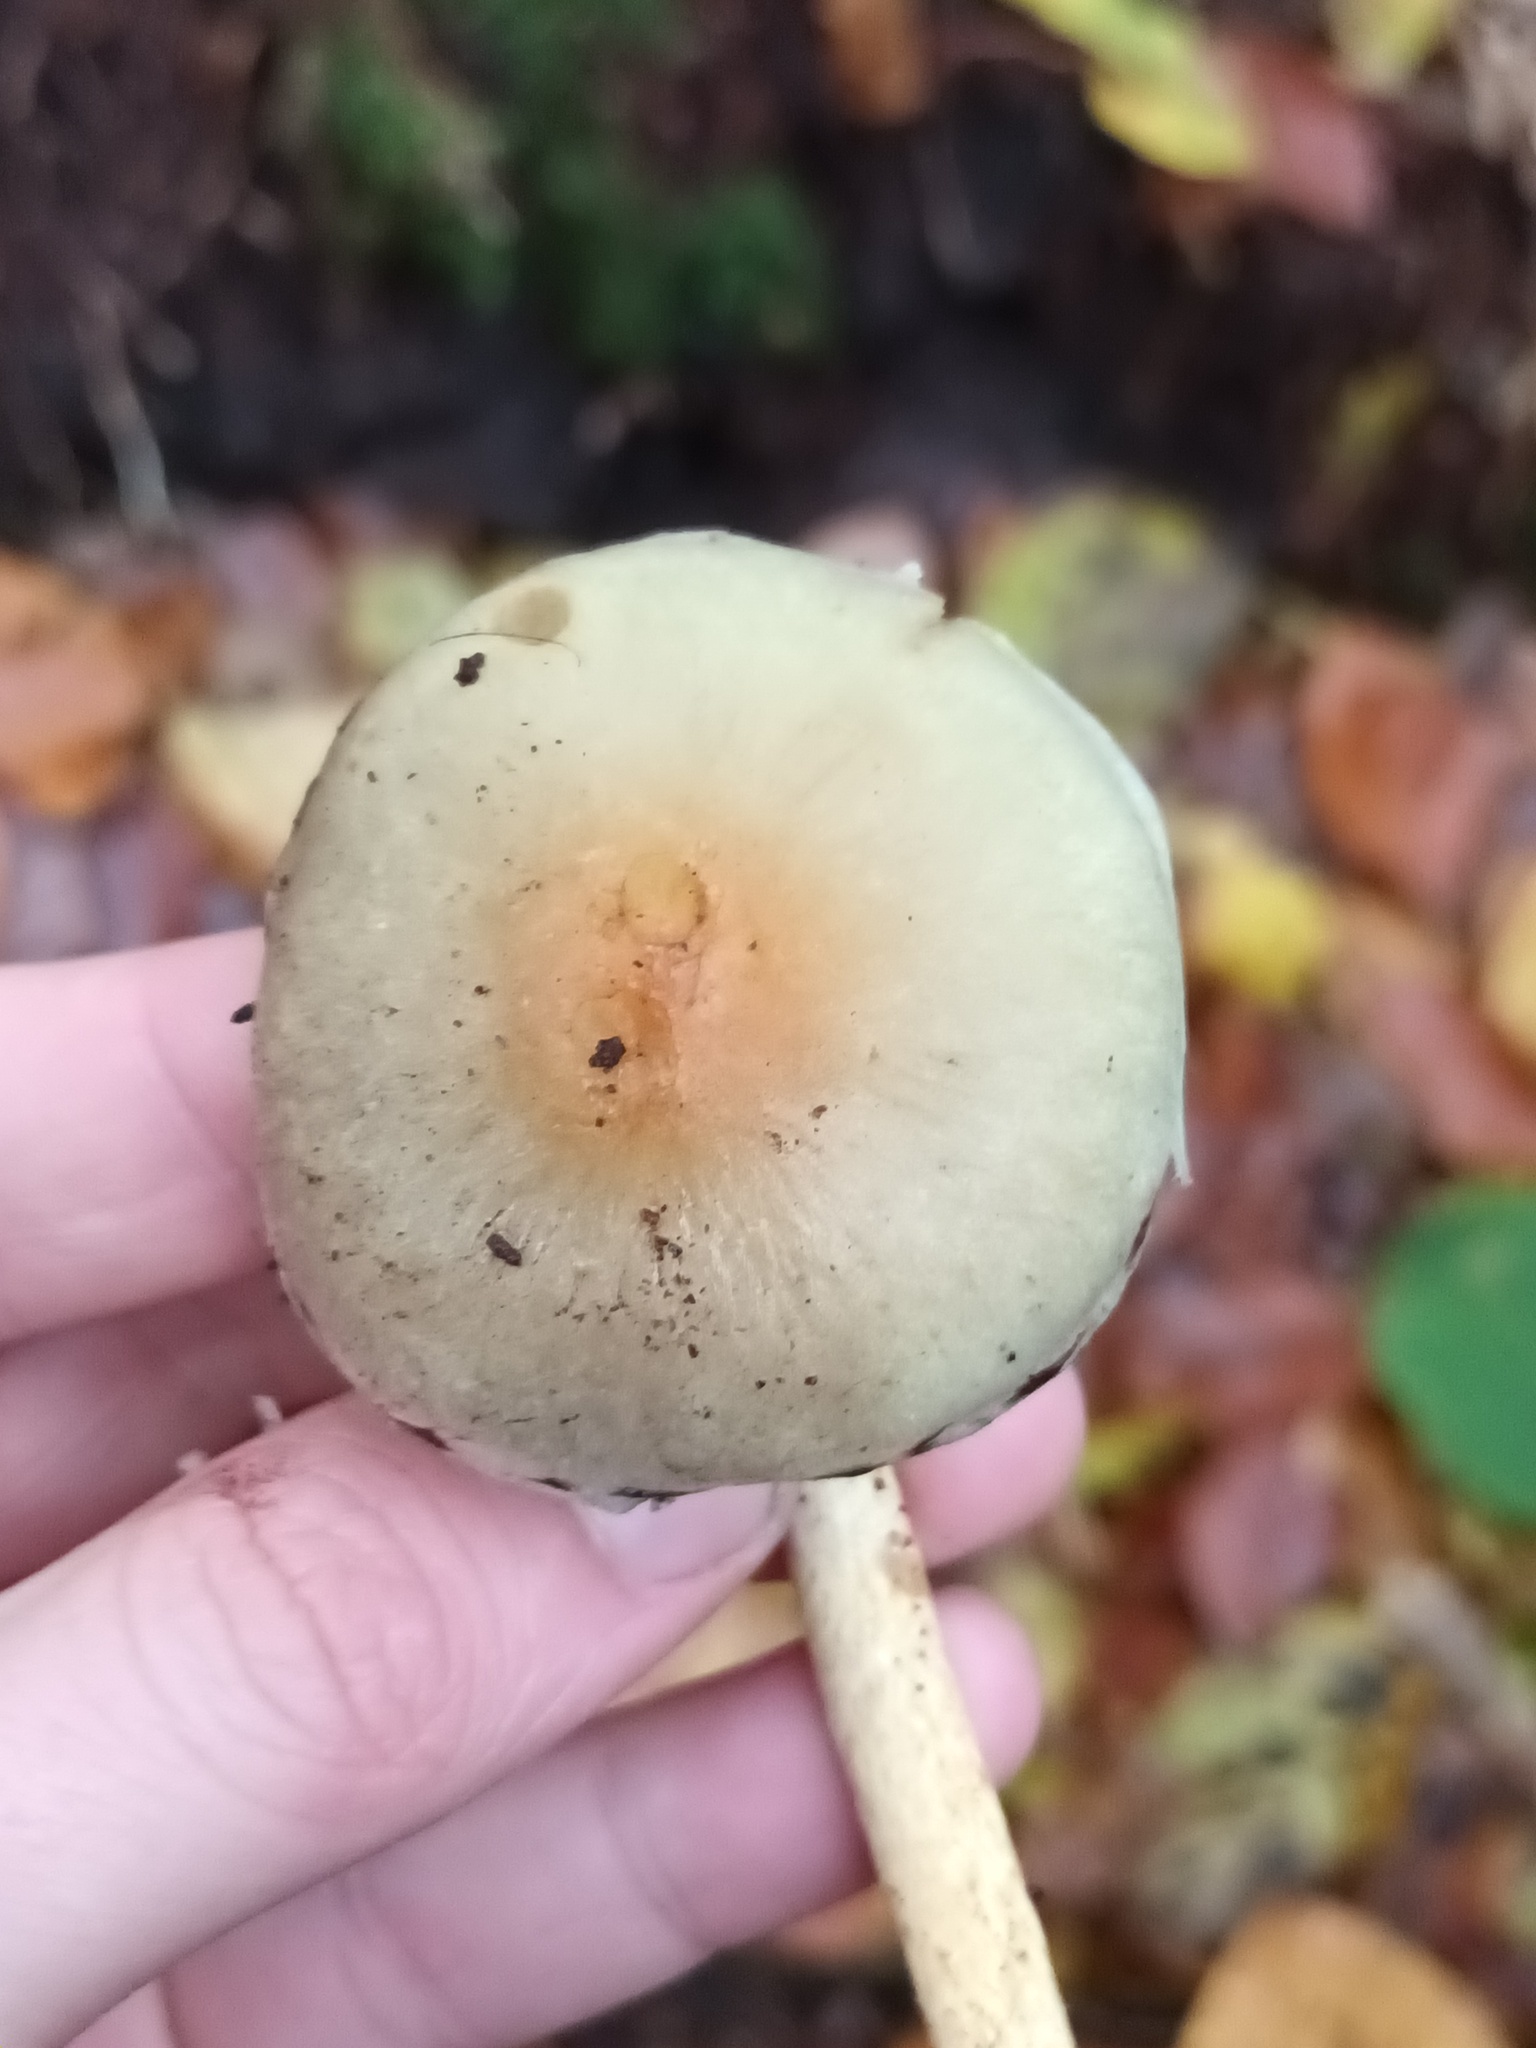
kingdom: Fungi
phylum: Basidiomycota
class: Agaricomycetes
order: Agaricales
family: Strophariaceae
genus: Hypholoma
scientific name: Hypholoma fasciculare
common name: Sulphur tuft
